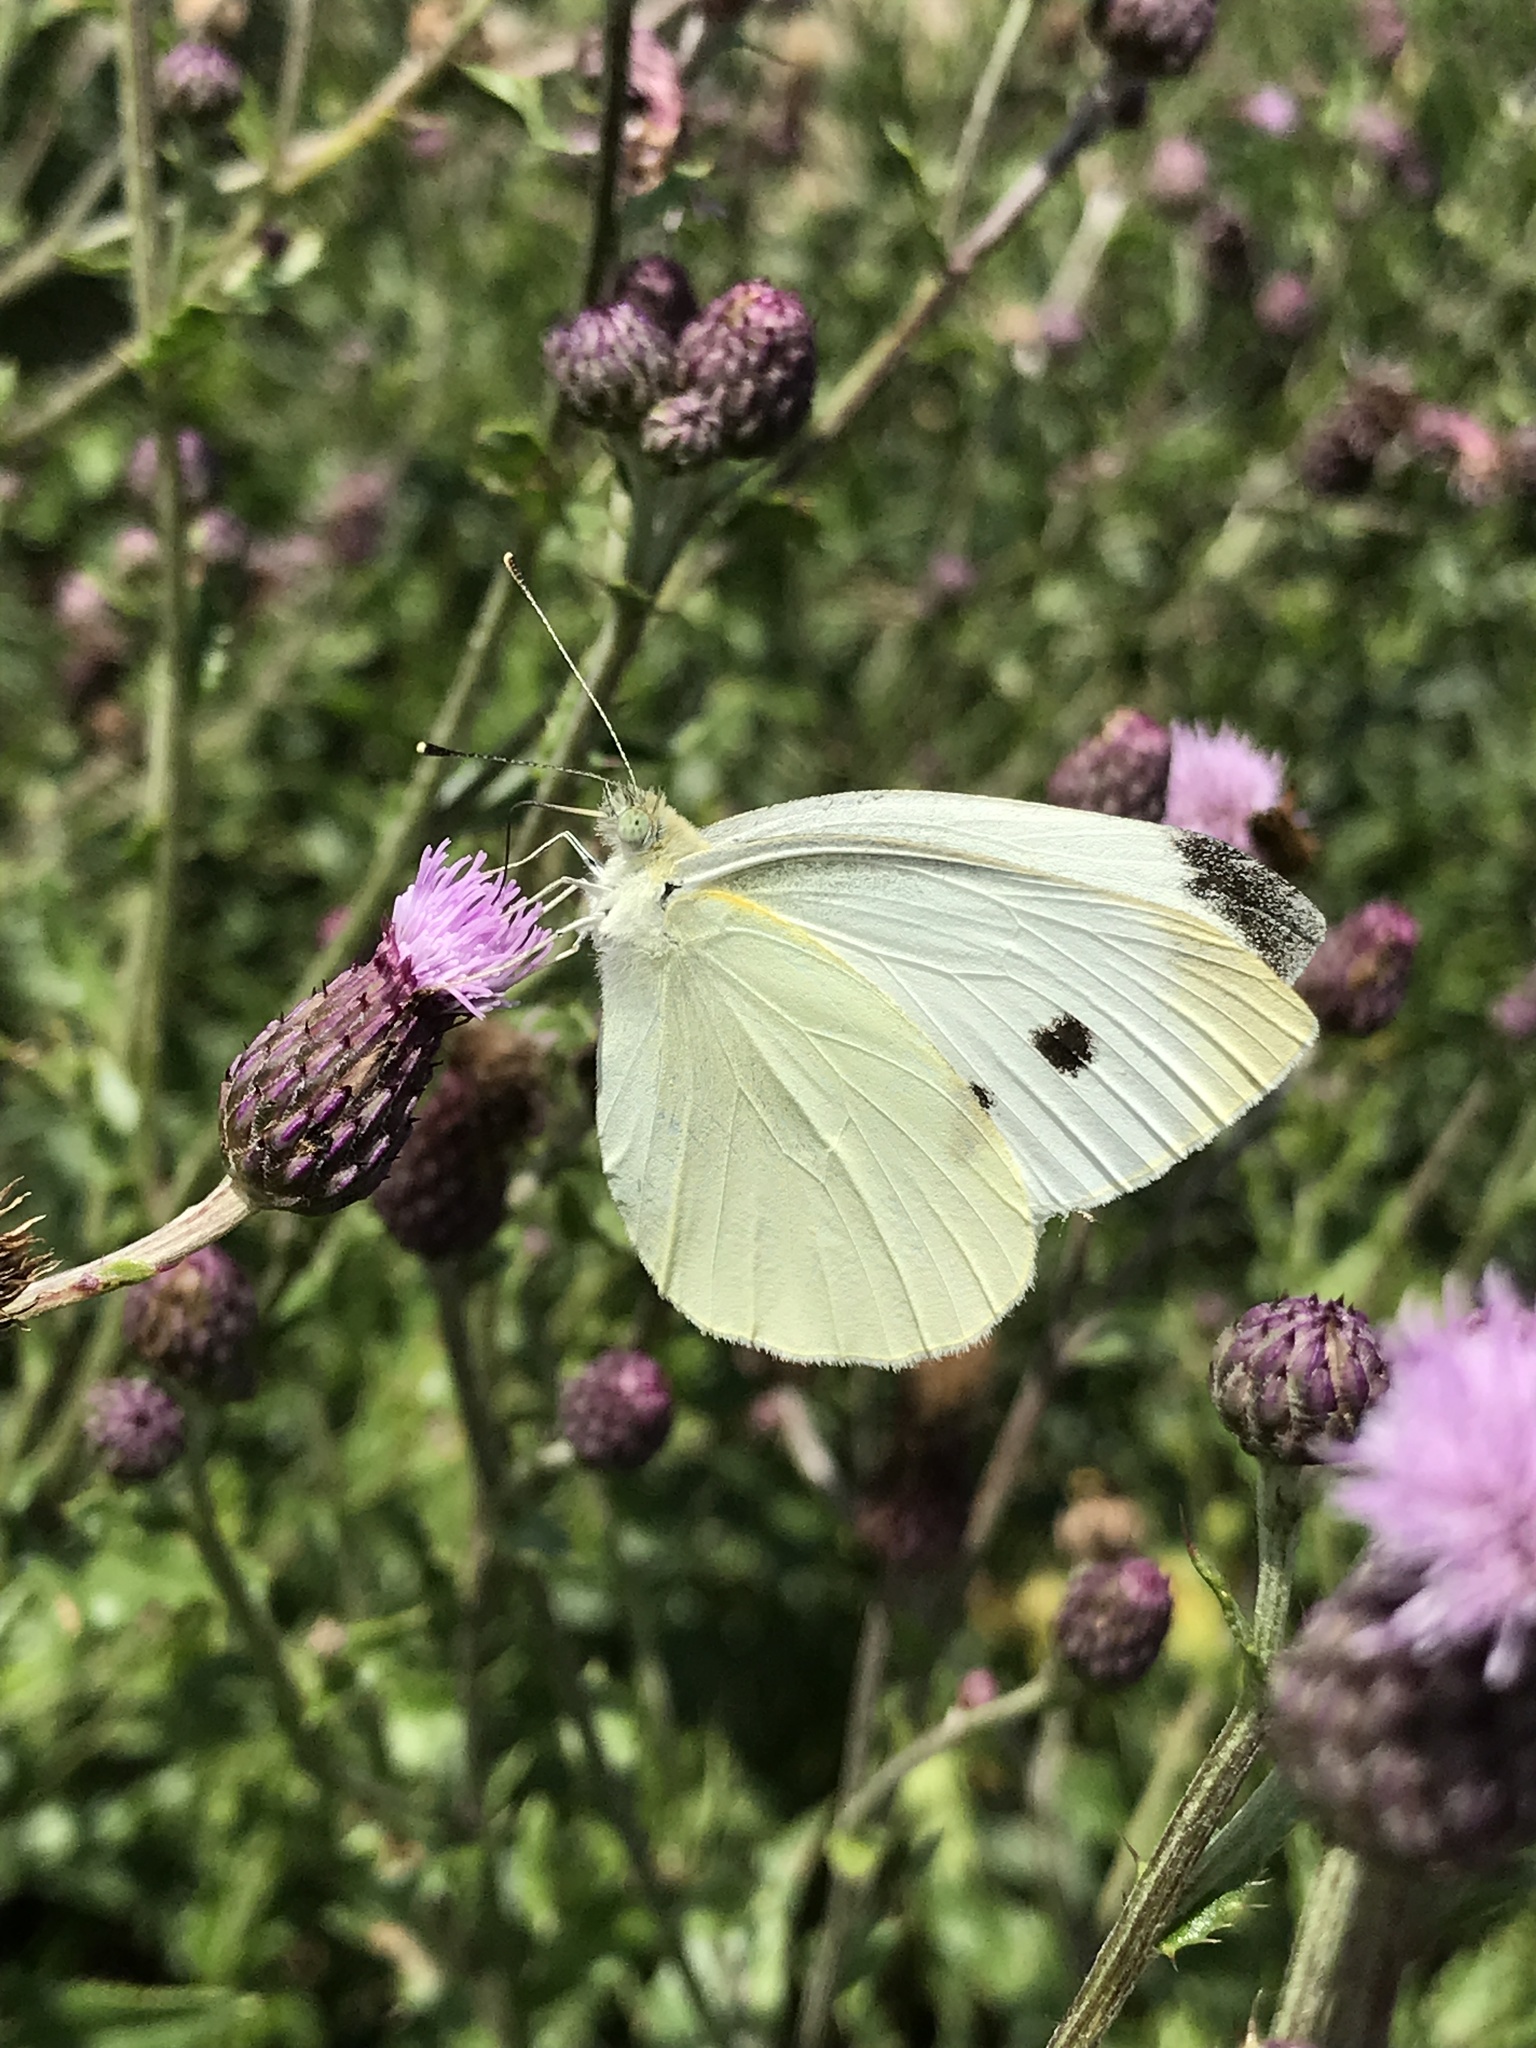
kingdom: Animalia
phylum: Arthropoda
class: Insecta
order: Lepidoptera
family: Pieridae
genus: Pieris
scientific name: Pieris rapae
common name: Small white
